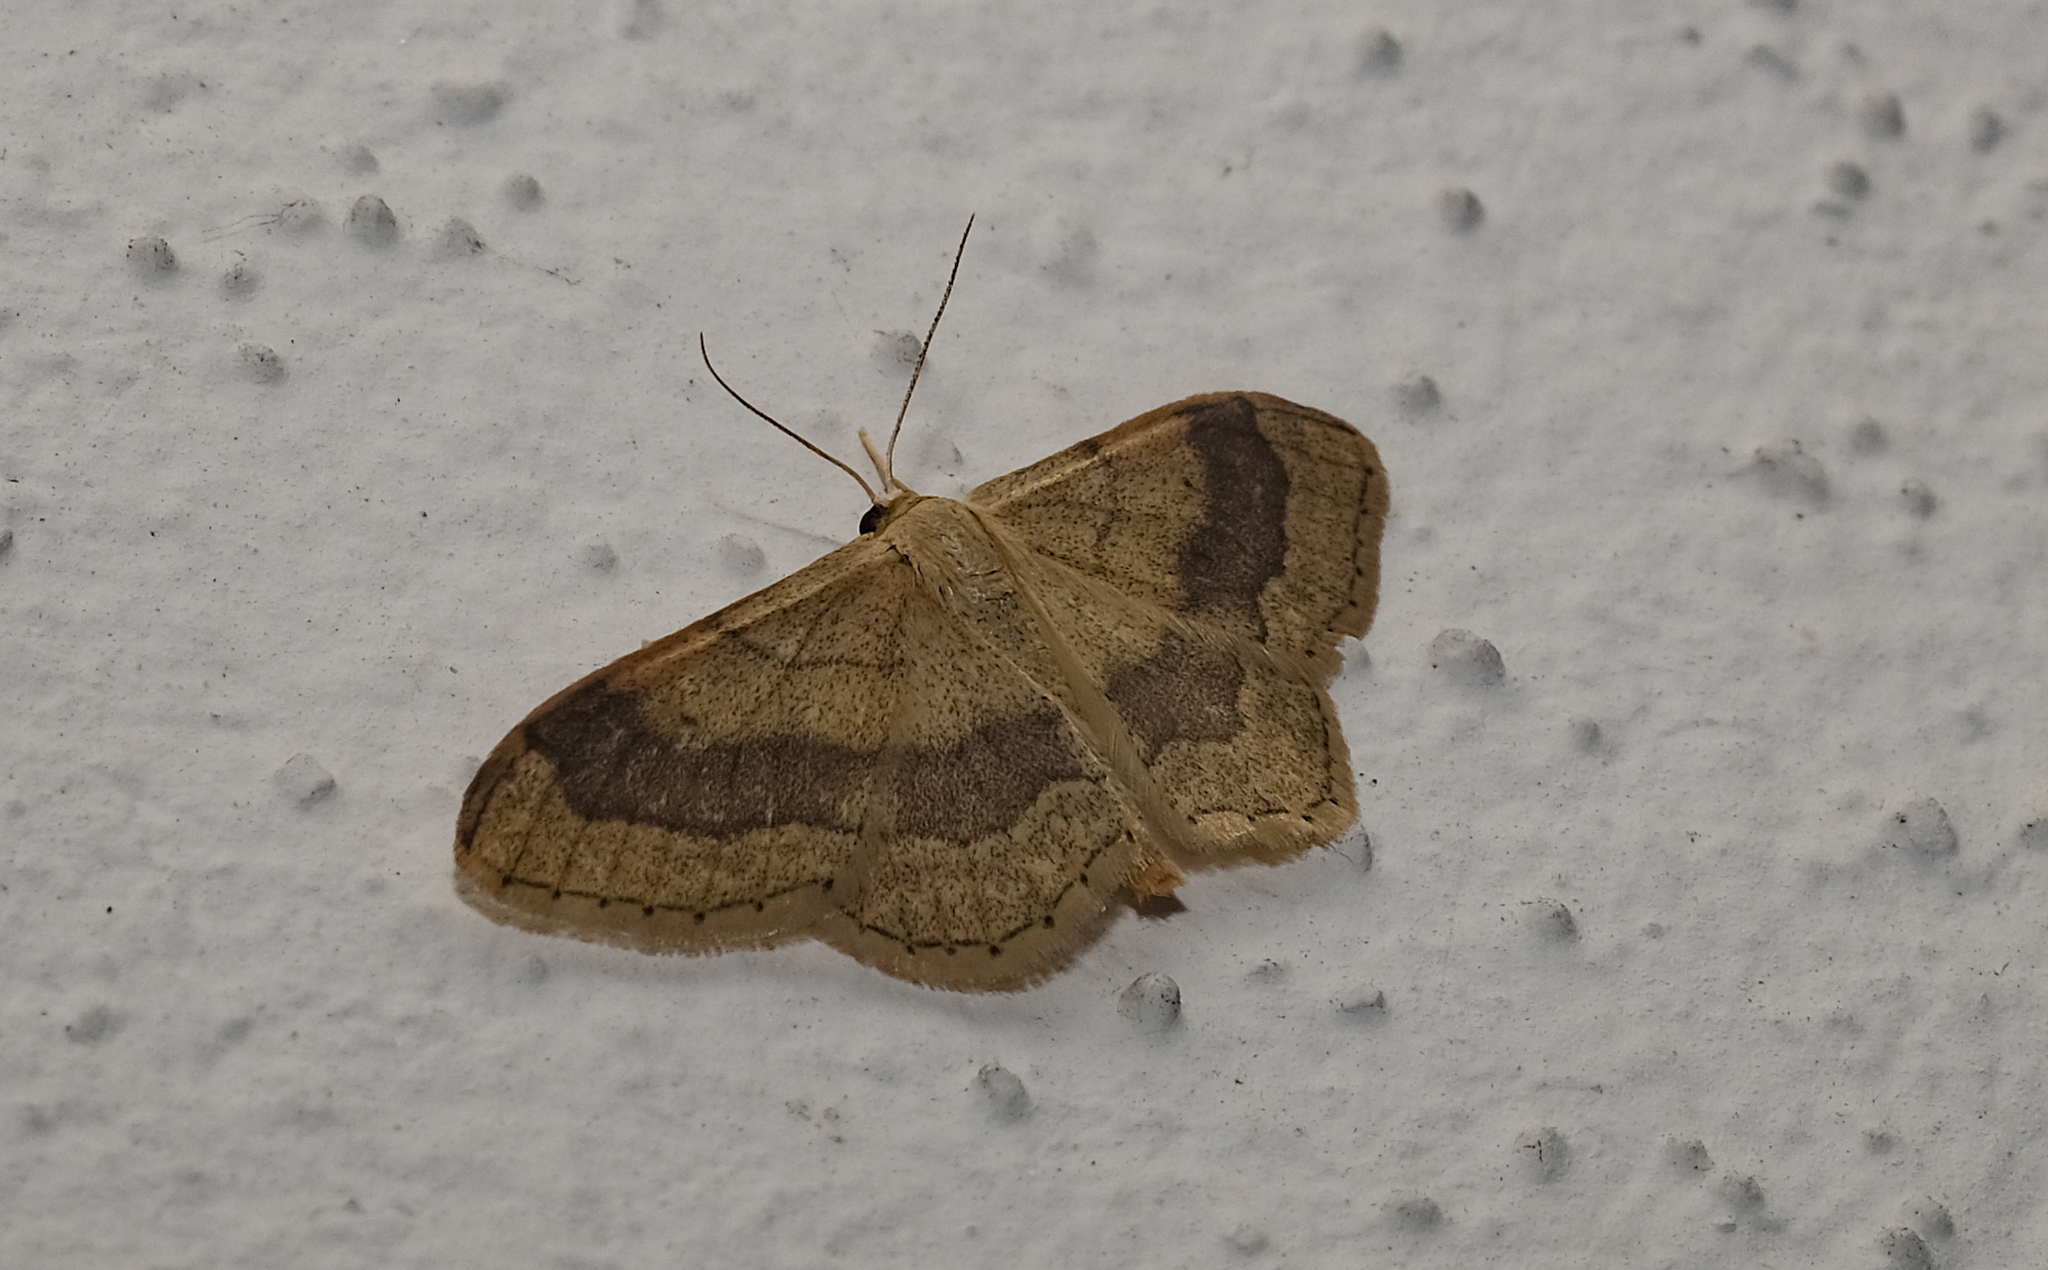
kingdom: Animalia
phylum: Arthropoda
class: Insecta
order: Lepidoptera
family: Geometridae
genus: Idaea
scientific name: Idaea aversata
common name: Riband wave
